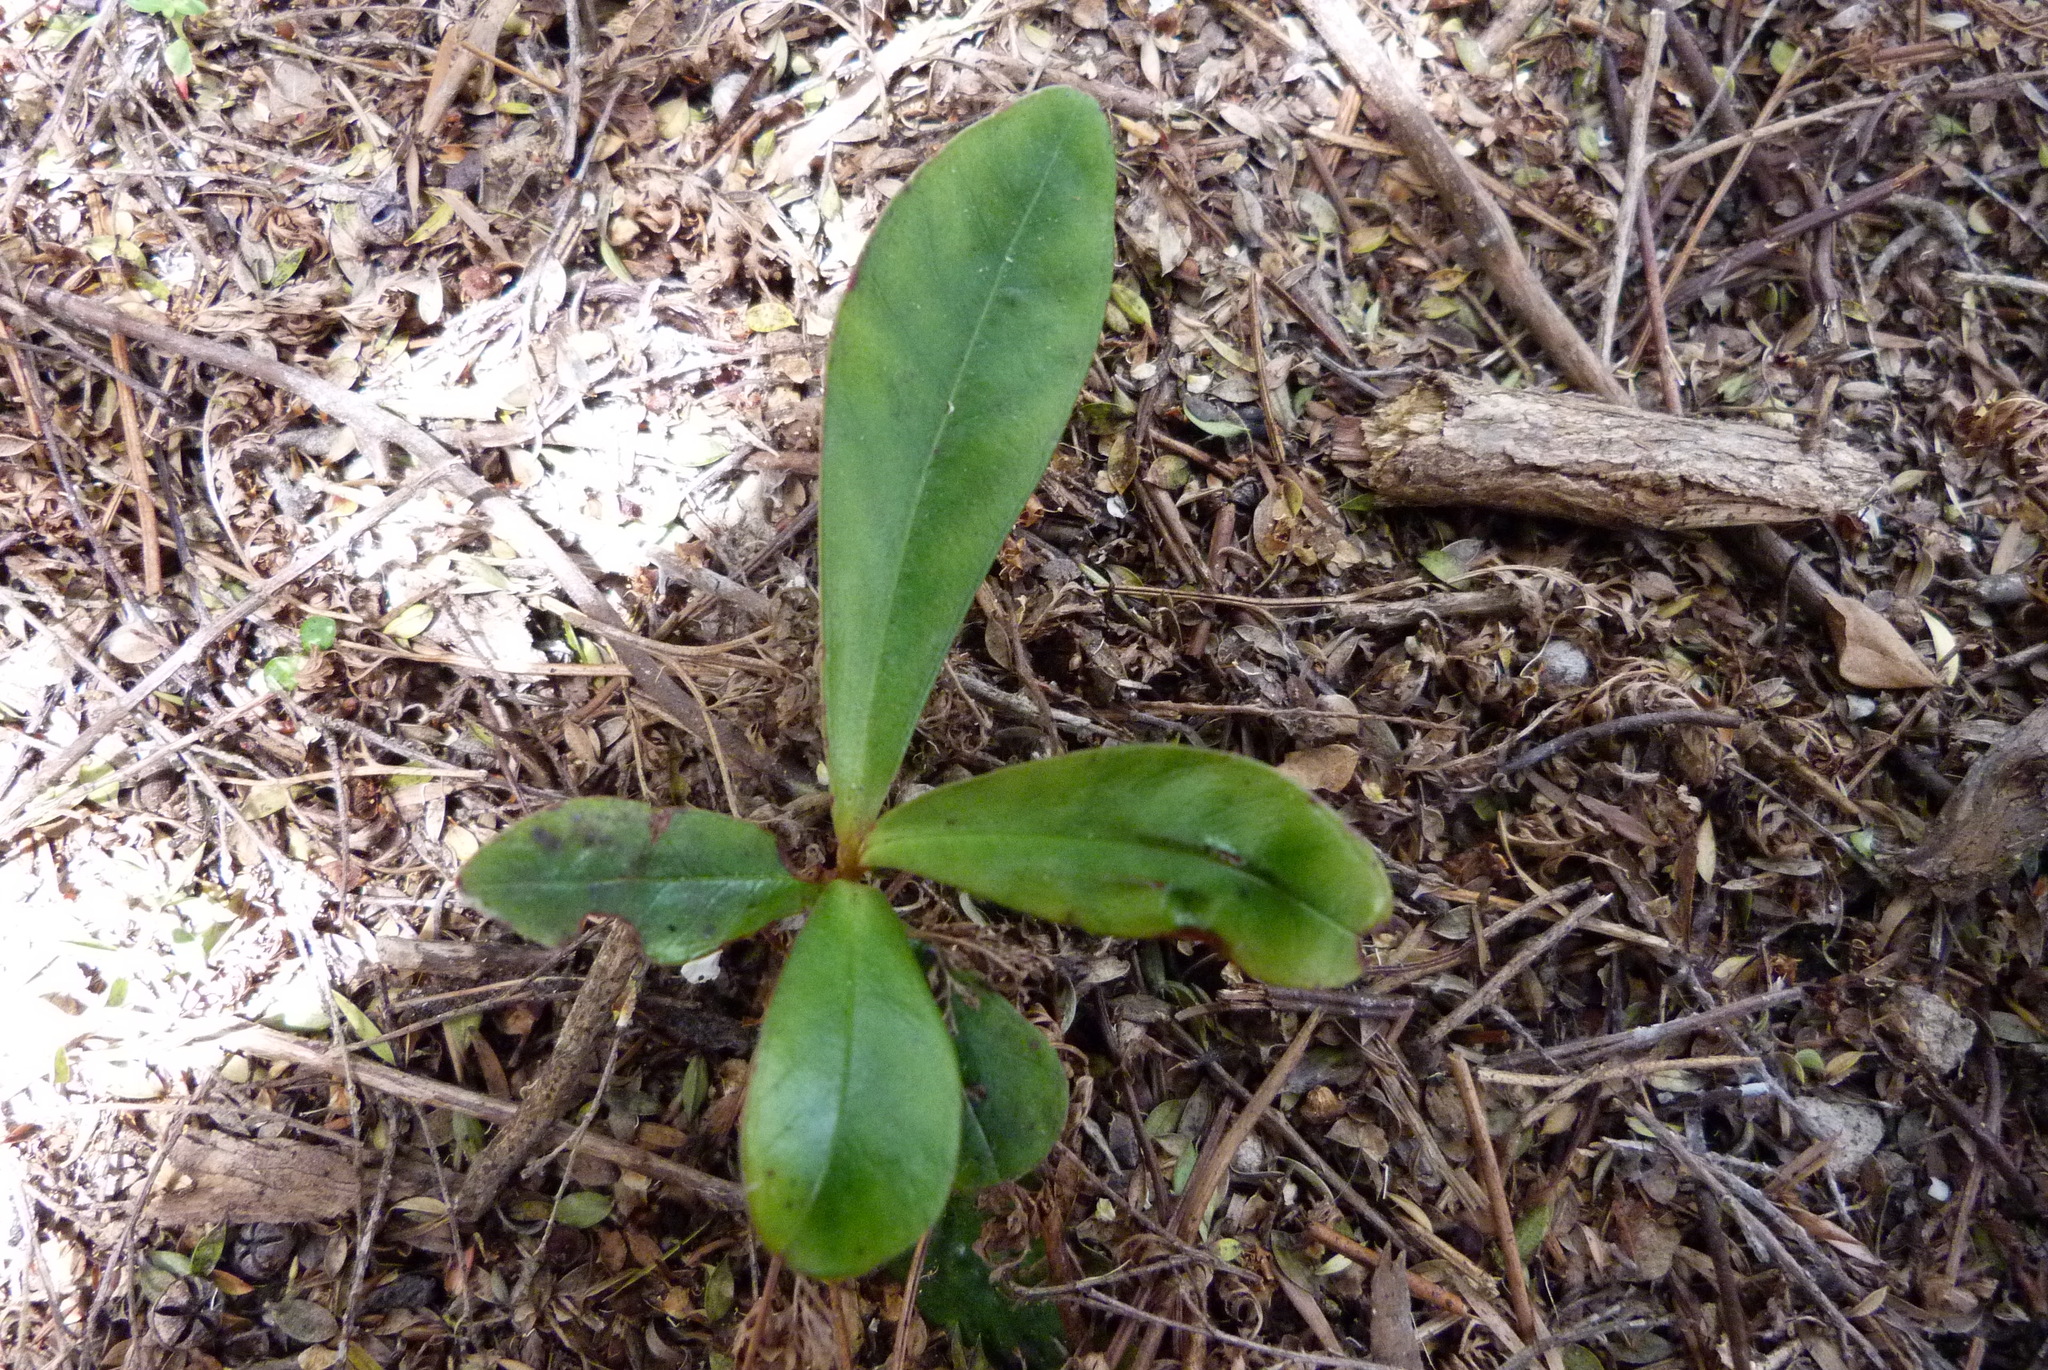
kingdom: Plantae
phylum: Tracheophyta
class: Magnoliopsida
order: Ericales
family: Primulaceae
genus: Myrsine
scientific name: Myrsine salicina
